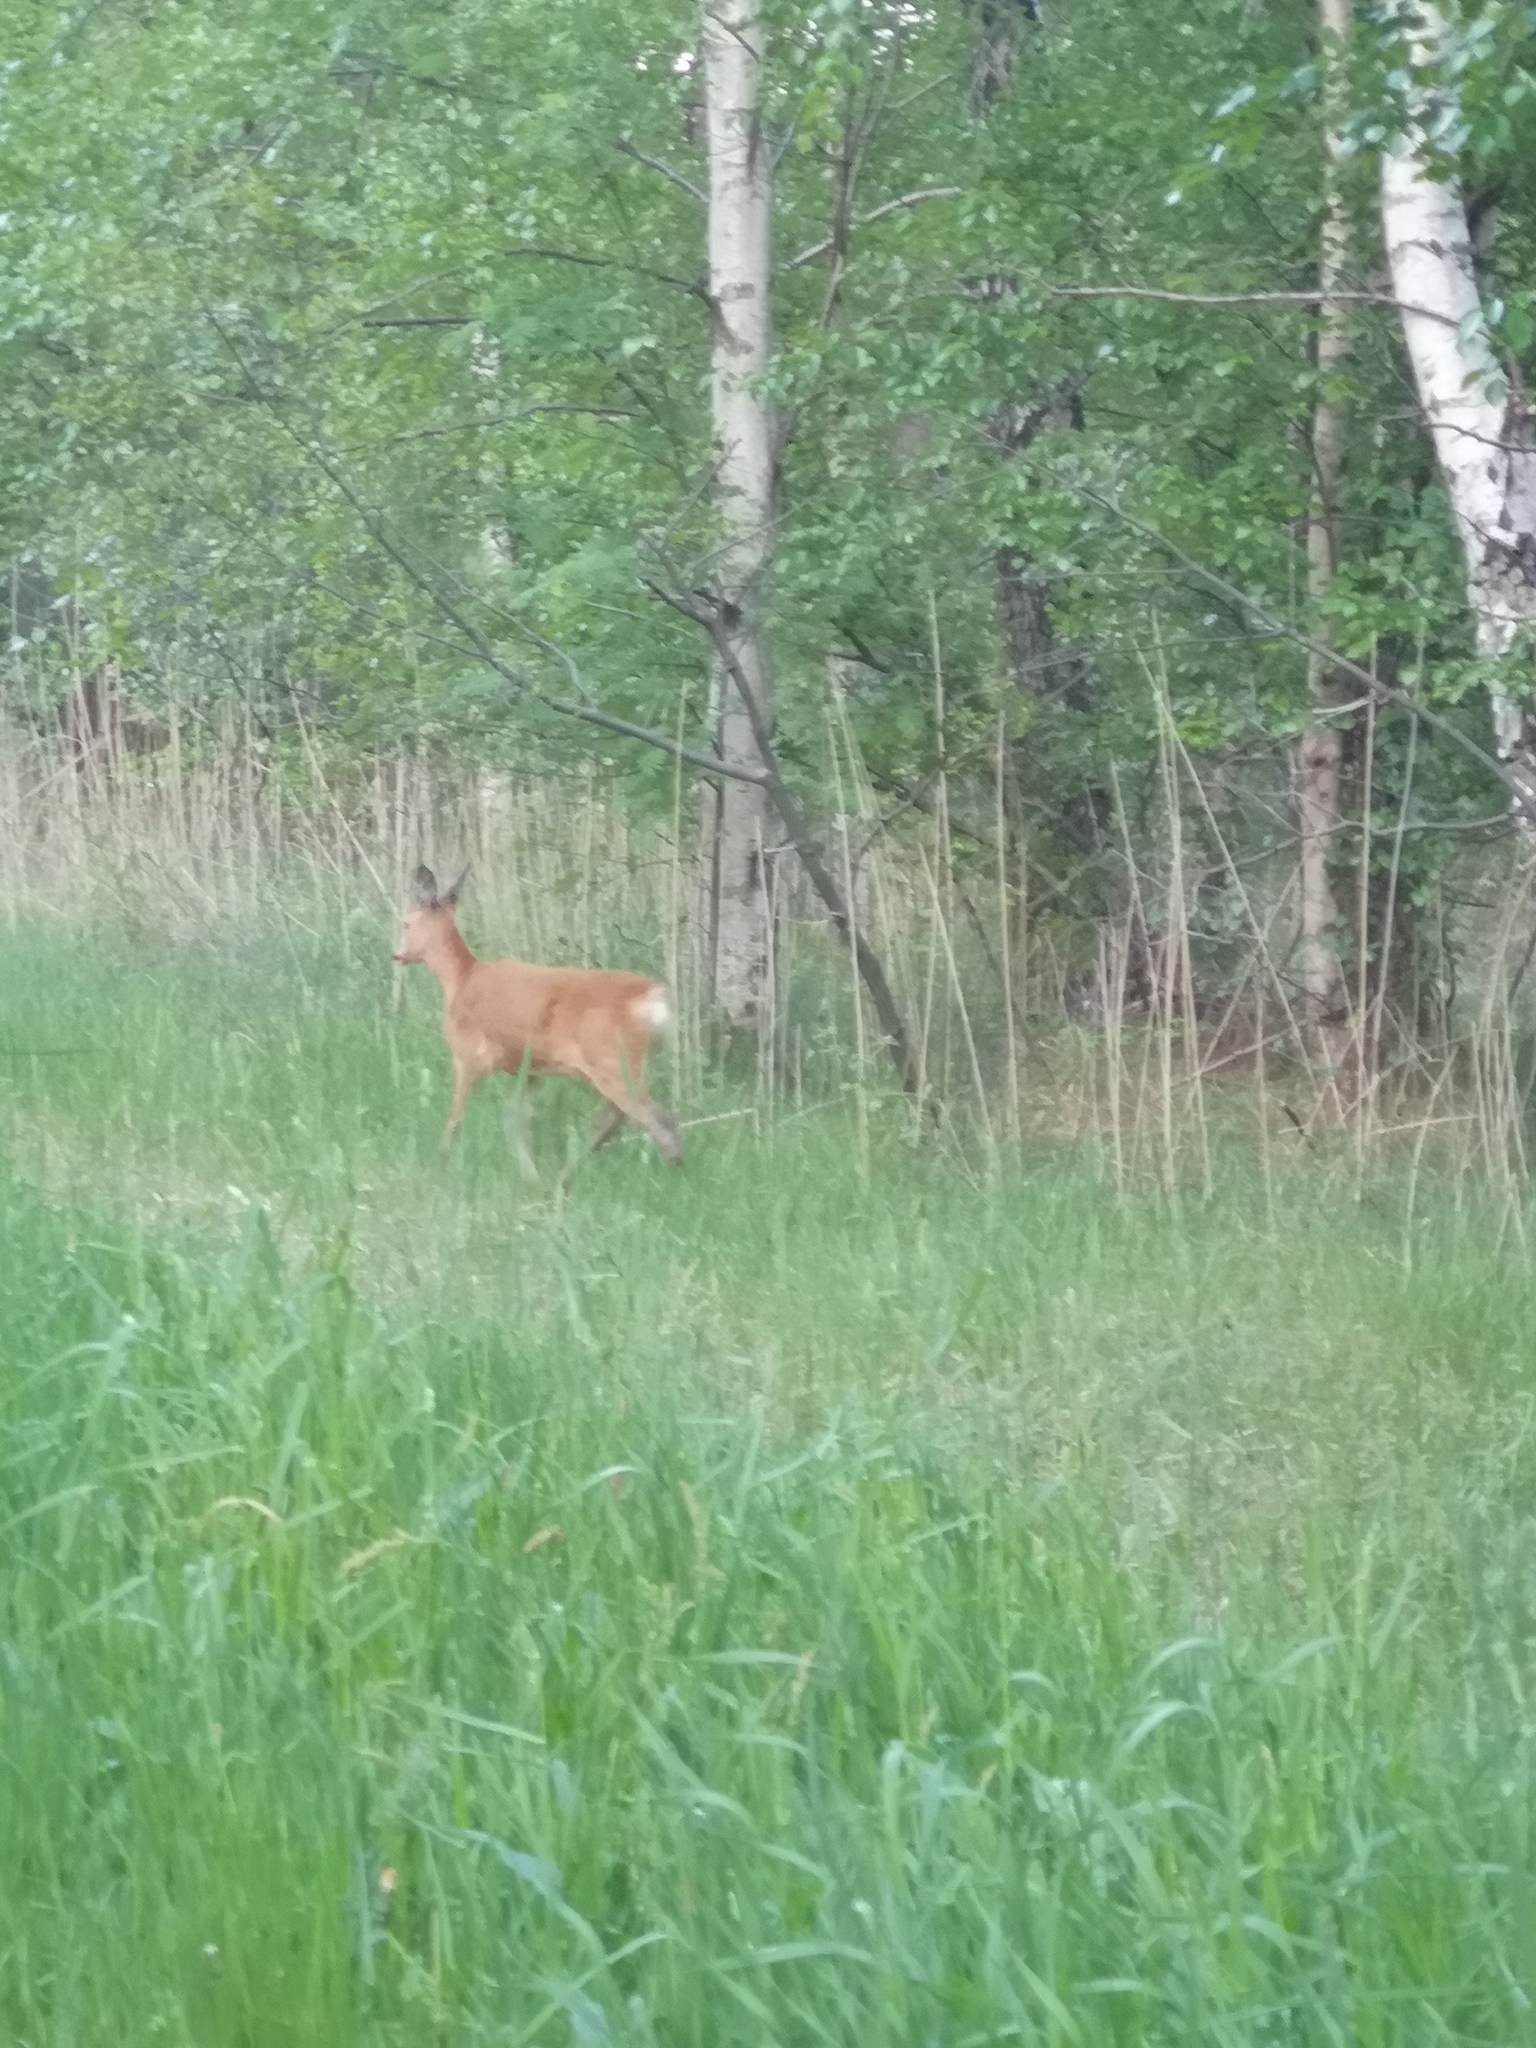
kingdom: Animalia
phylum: Chordata
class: Mammalia
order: Artiodactyla
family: Cervidae
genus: Capreolus
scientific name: Capreolus capreolus
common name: Western roe deer
